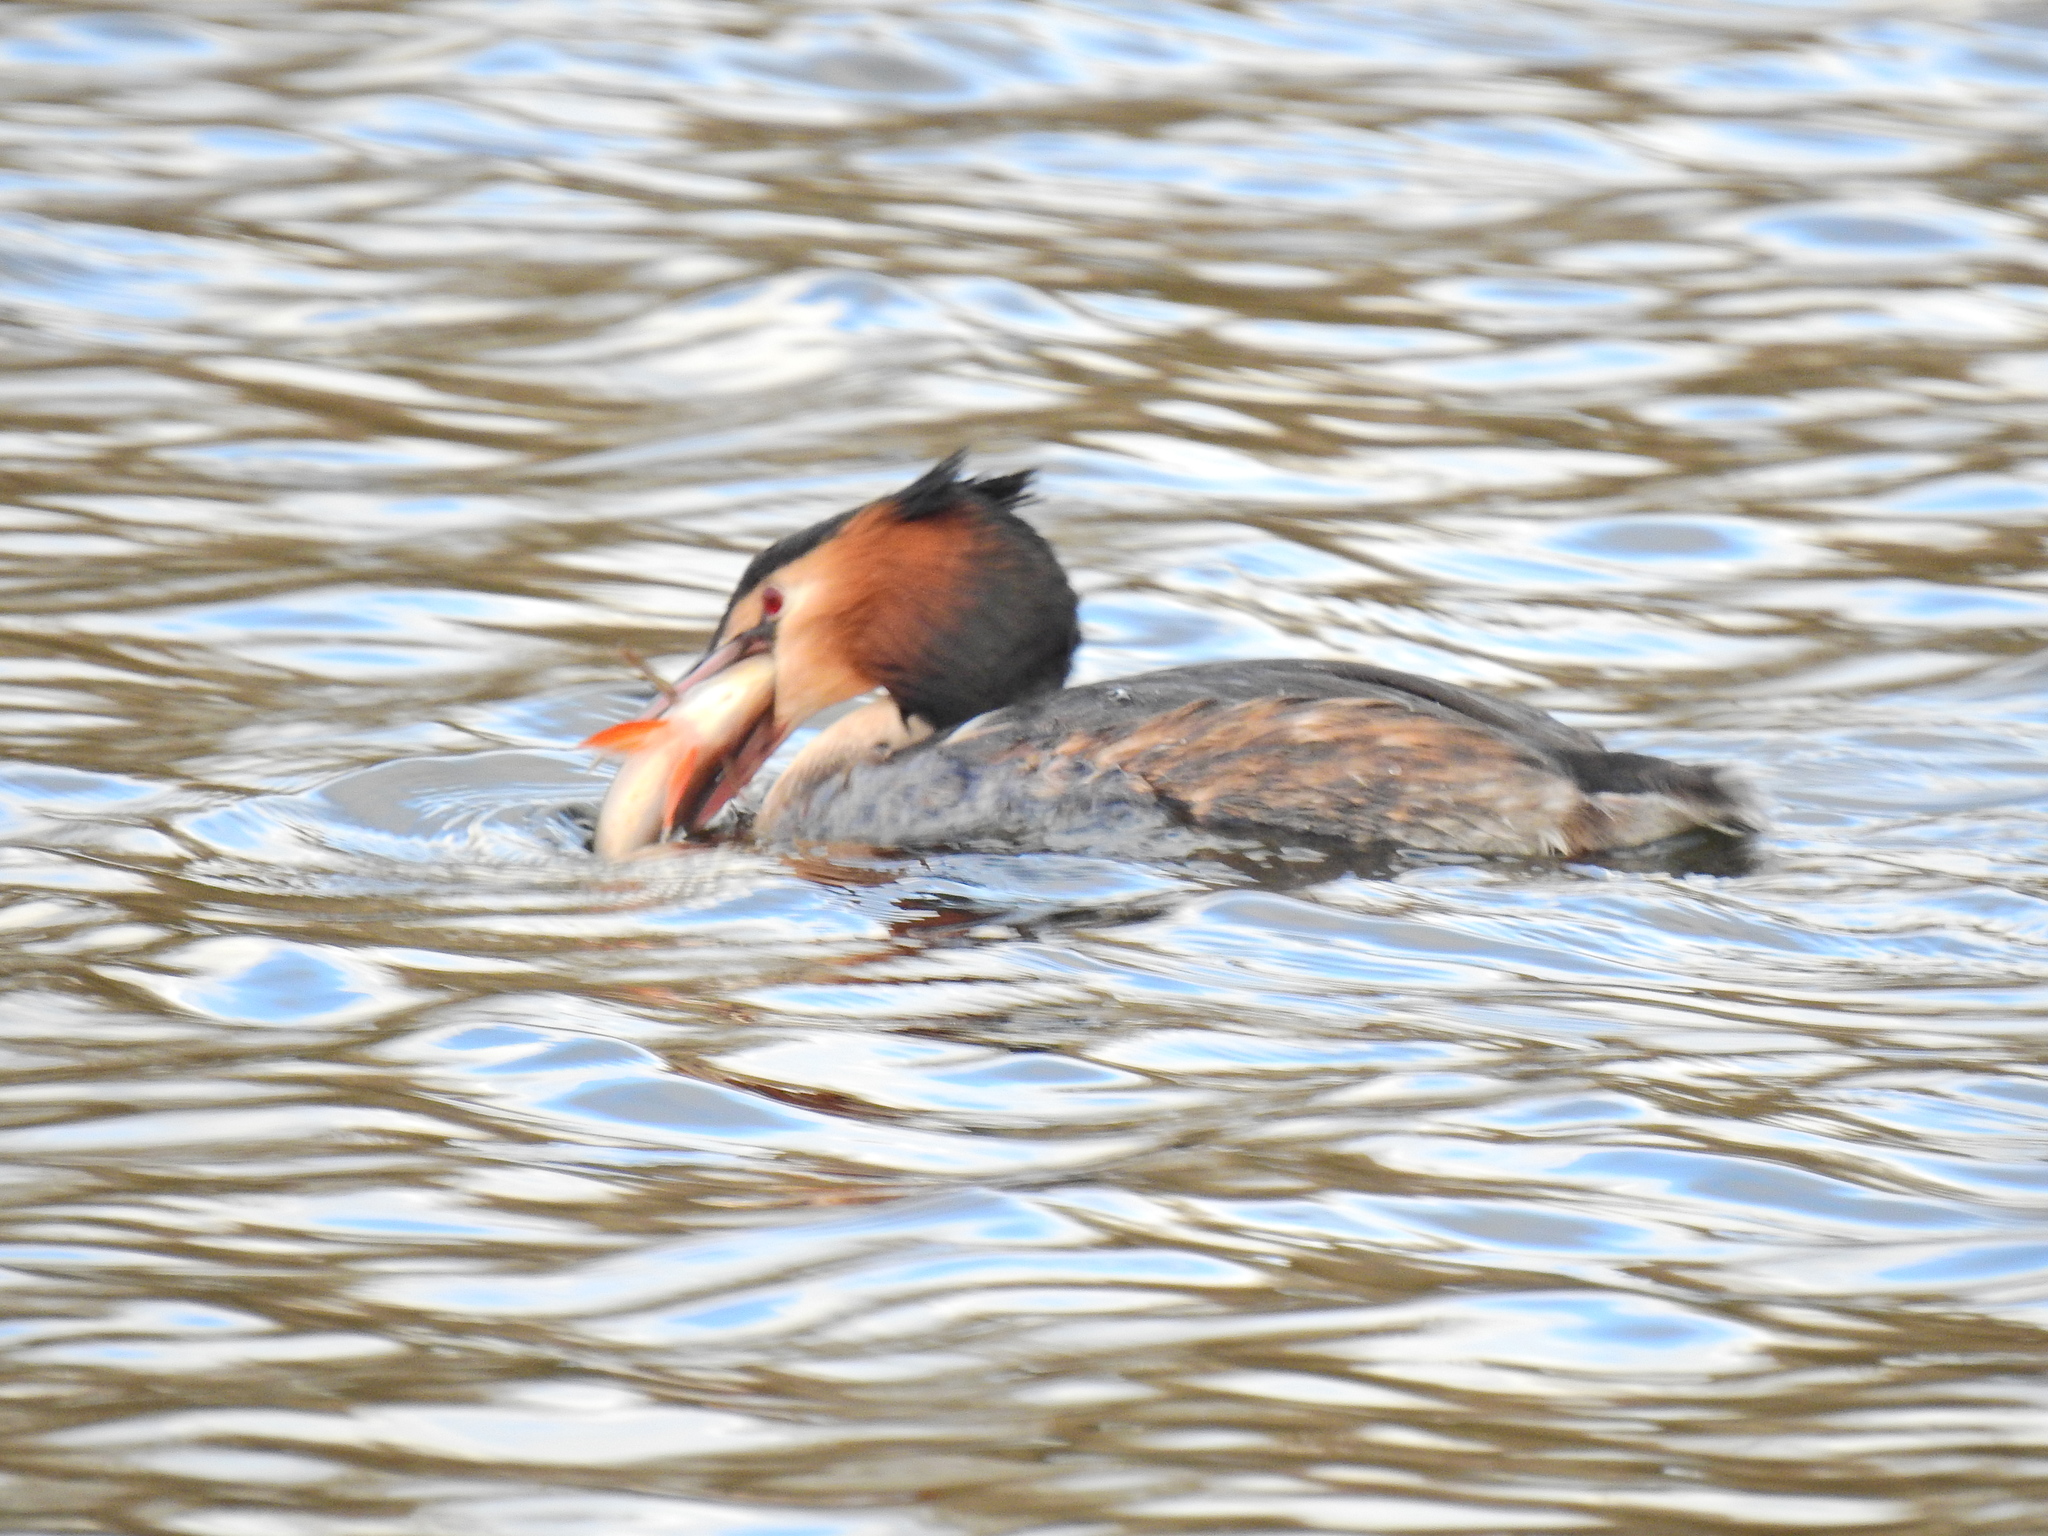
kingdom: Animalia
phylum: Chordata
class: Aves
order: Podicipediformes
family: Podicipedidae
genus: Podiceps
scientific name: Podiceps cristatus
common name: Great crested grebe
